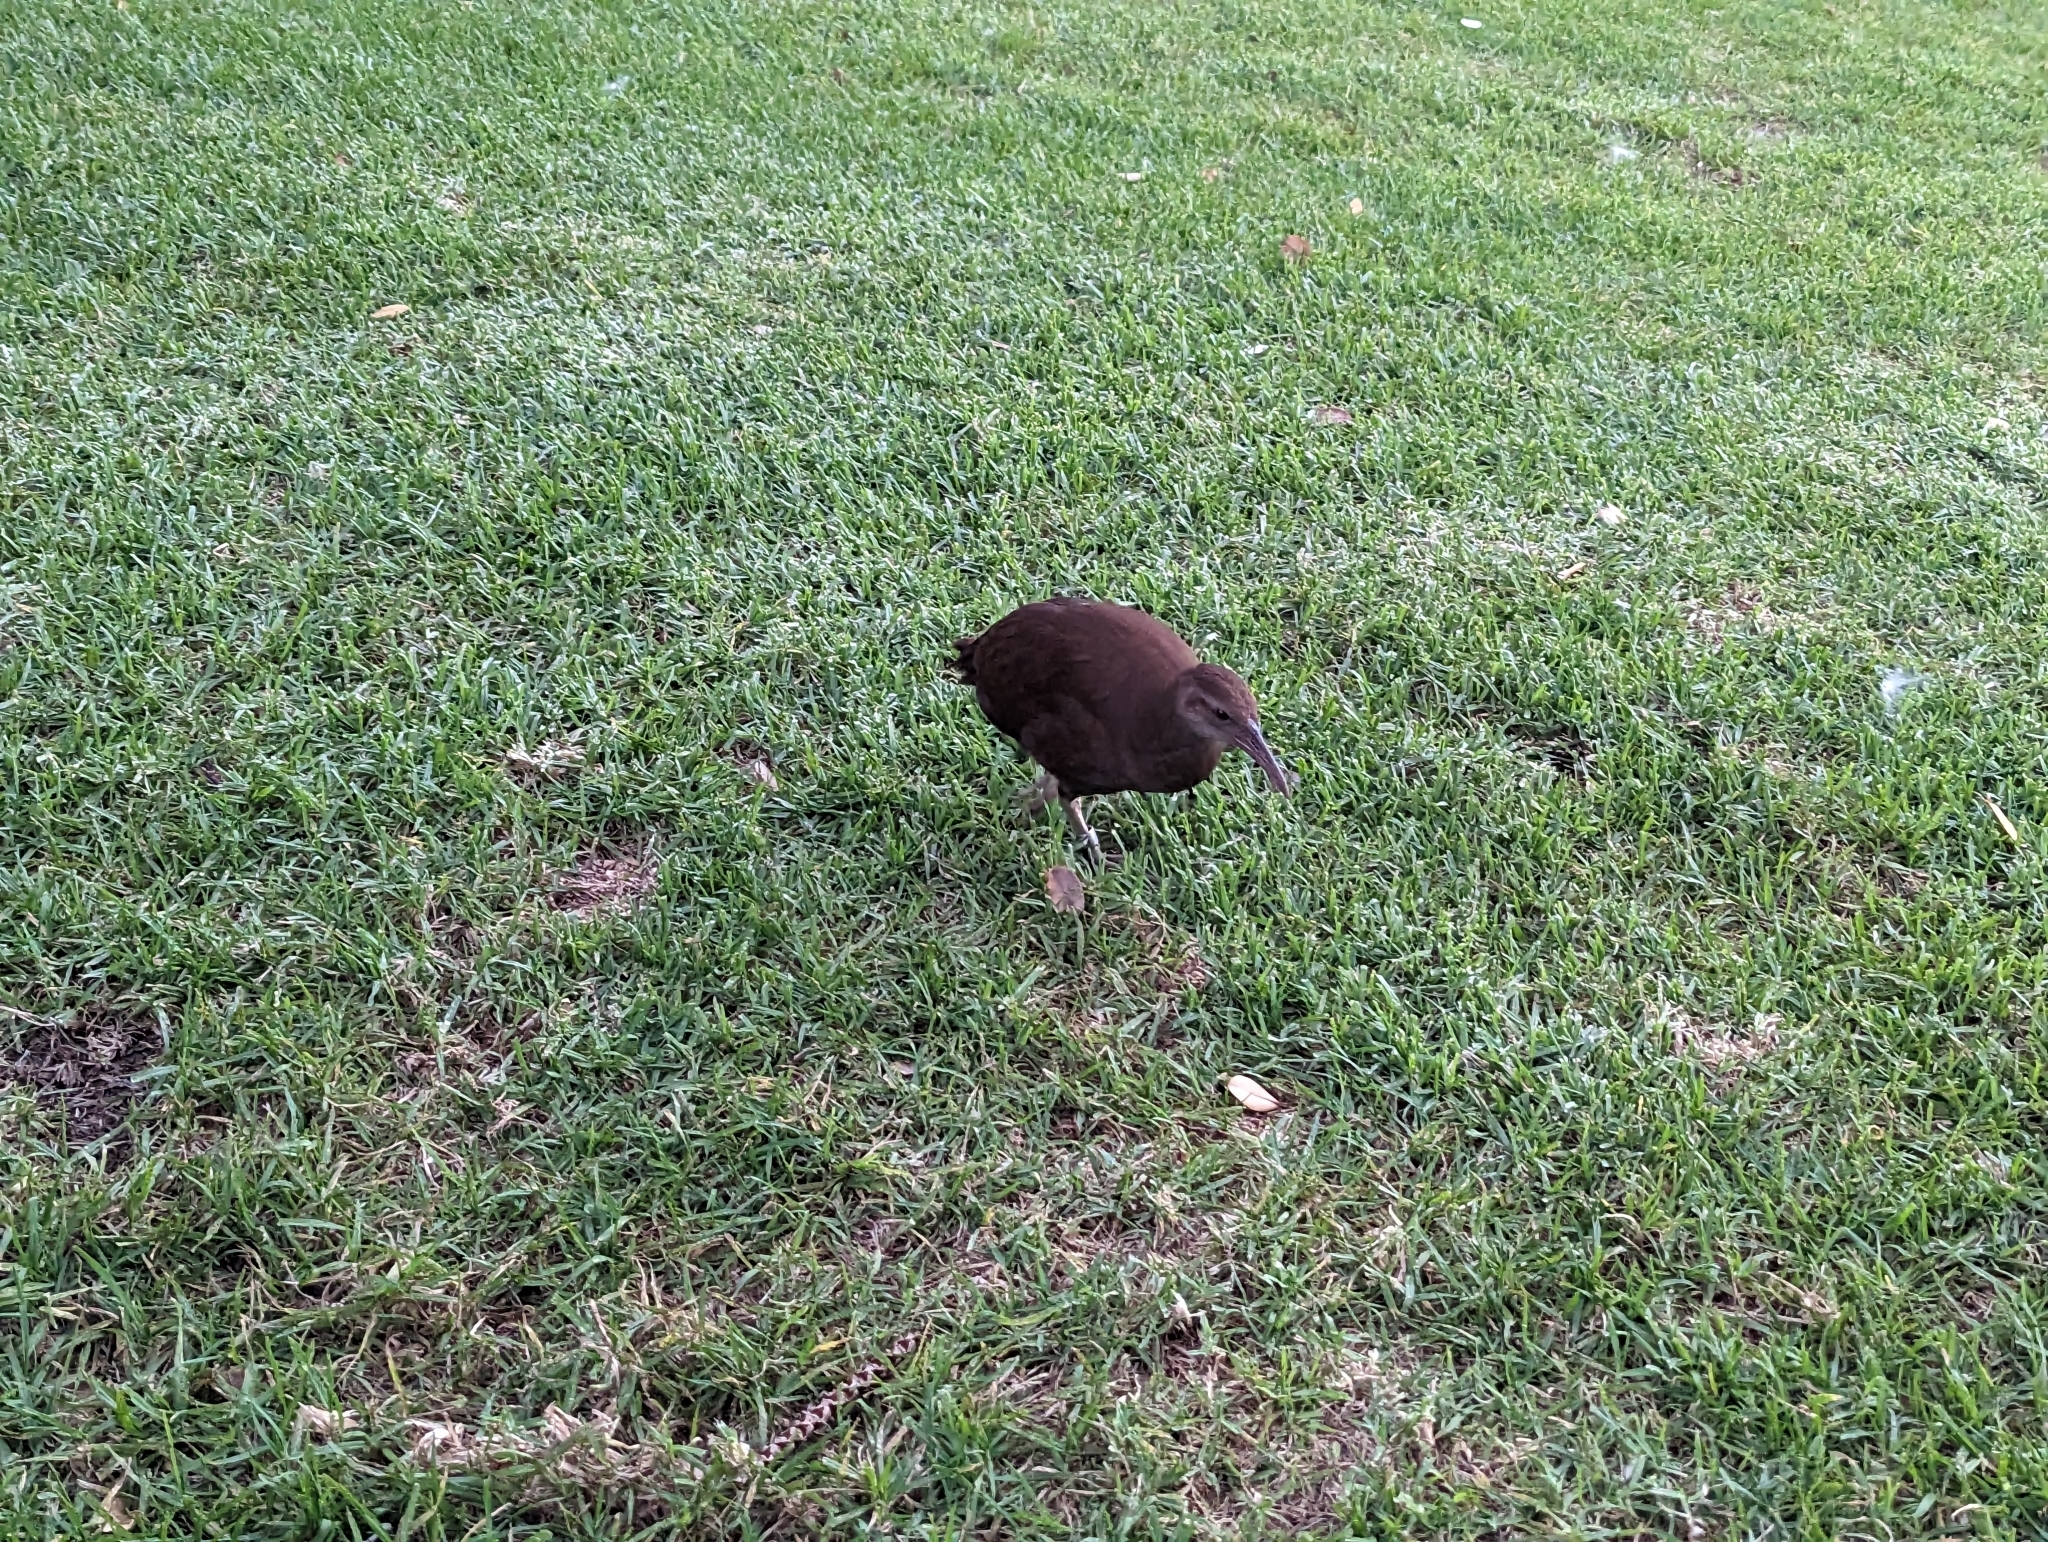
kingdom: Animalia
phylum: Chordata
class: Aves
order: Gruiformes
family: Rallidae
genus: Gallirallus
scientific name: Gallirallus sylvestris
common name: Lord howe woodhen
